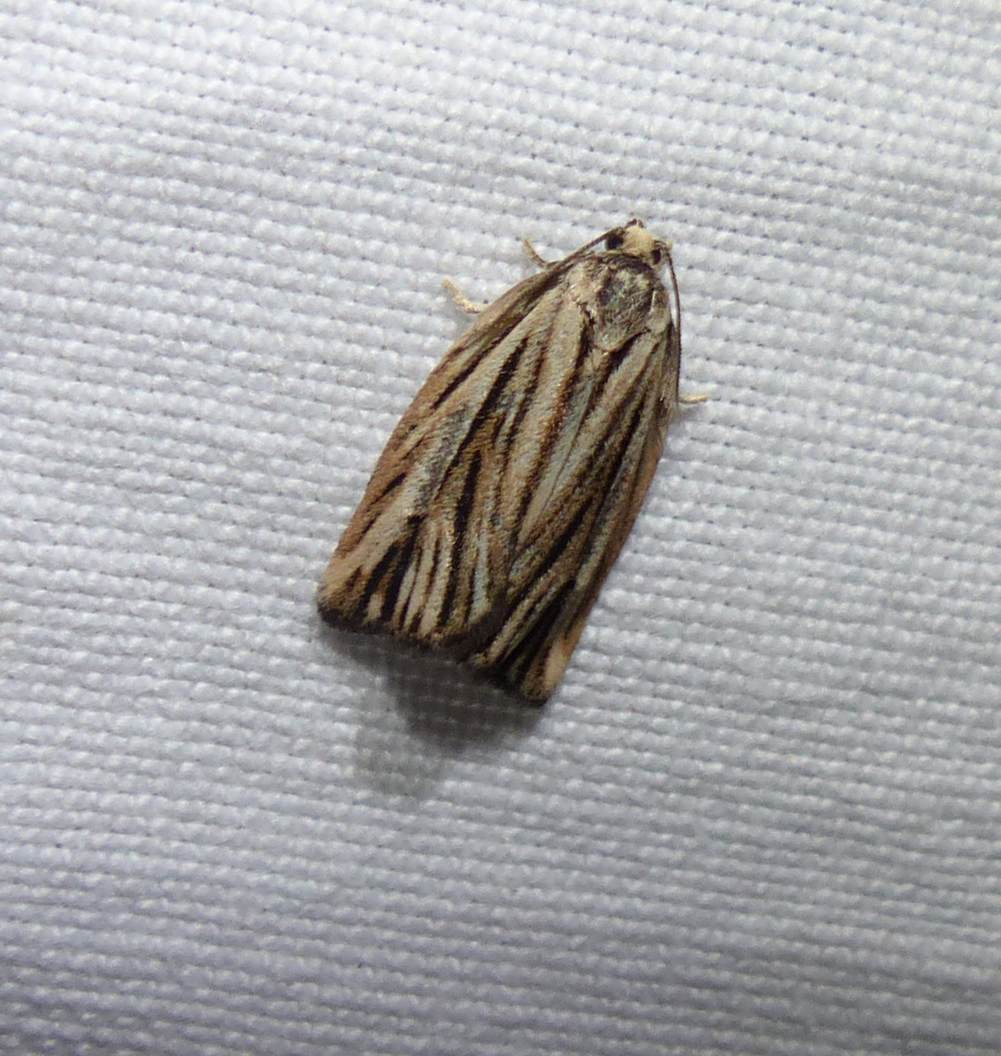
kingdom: Animalia
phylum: Arthropoda
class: Insecta
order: Lepidoptera
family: Tortricidae
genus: Archips
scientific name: Archips strianus
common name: Striated tortrix moth
